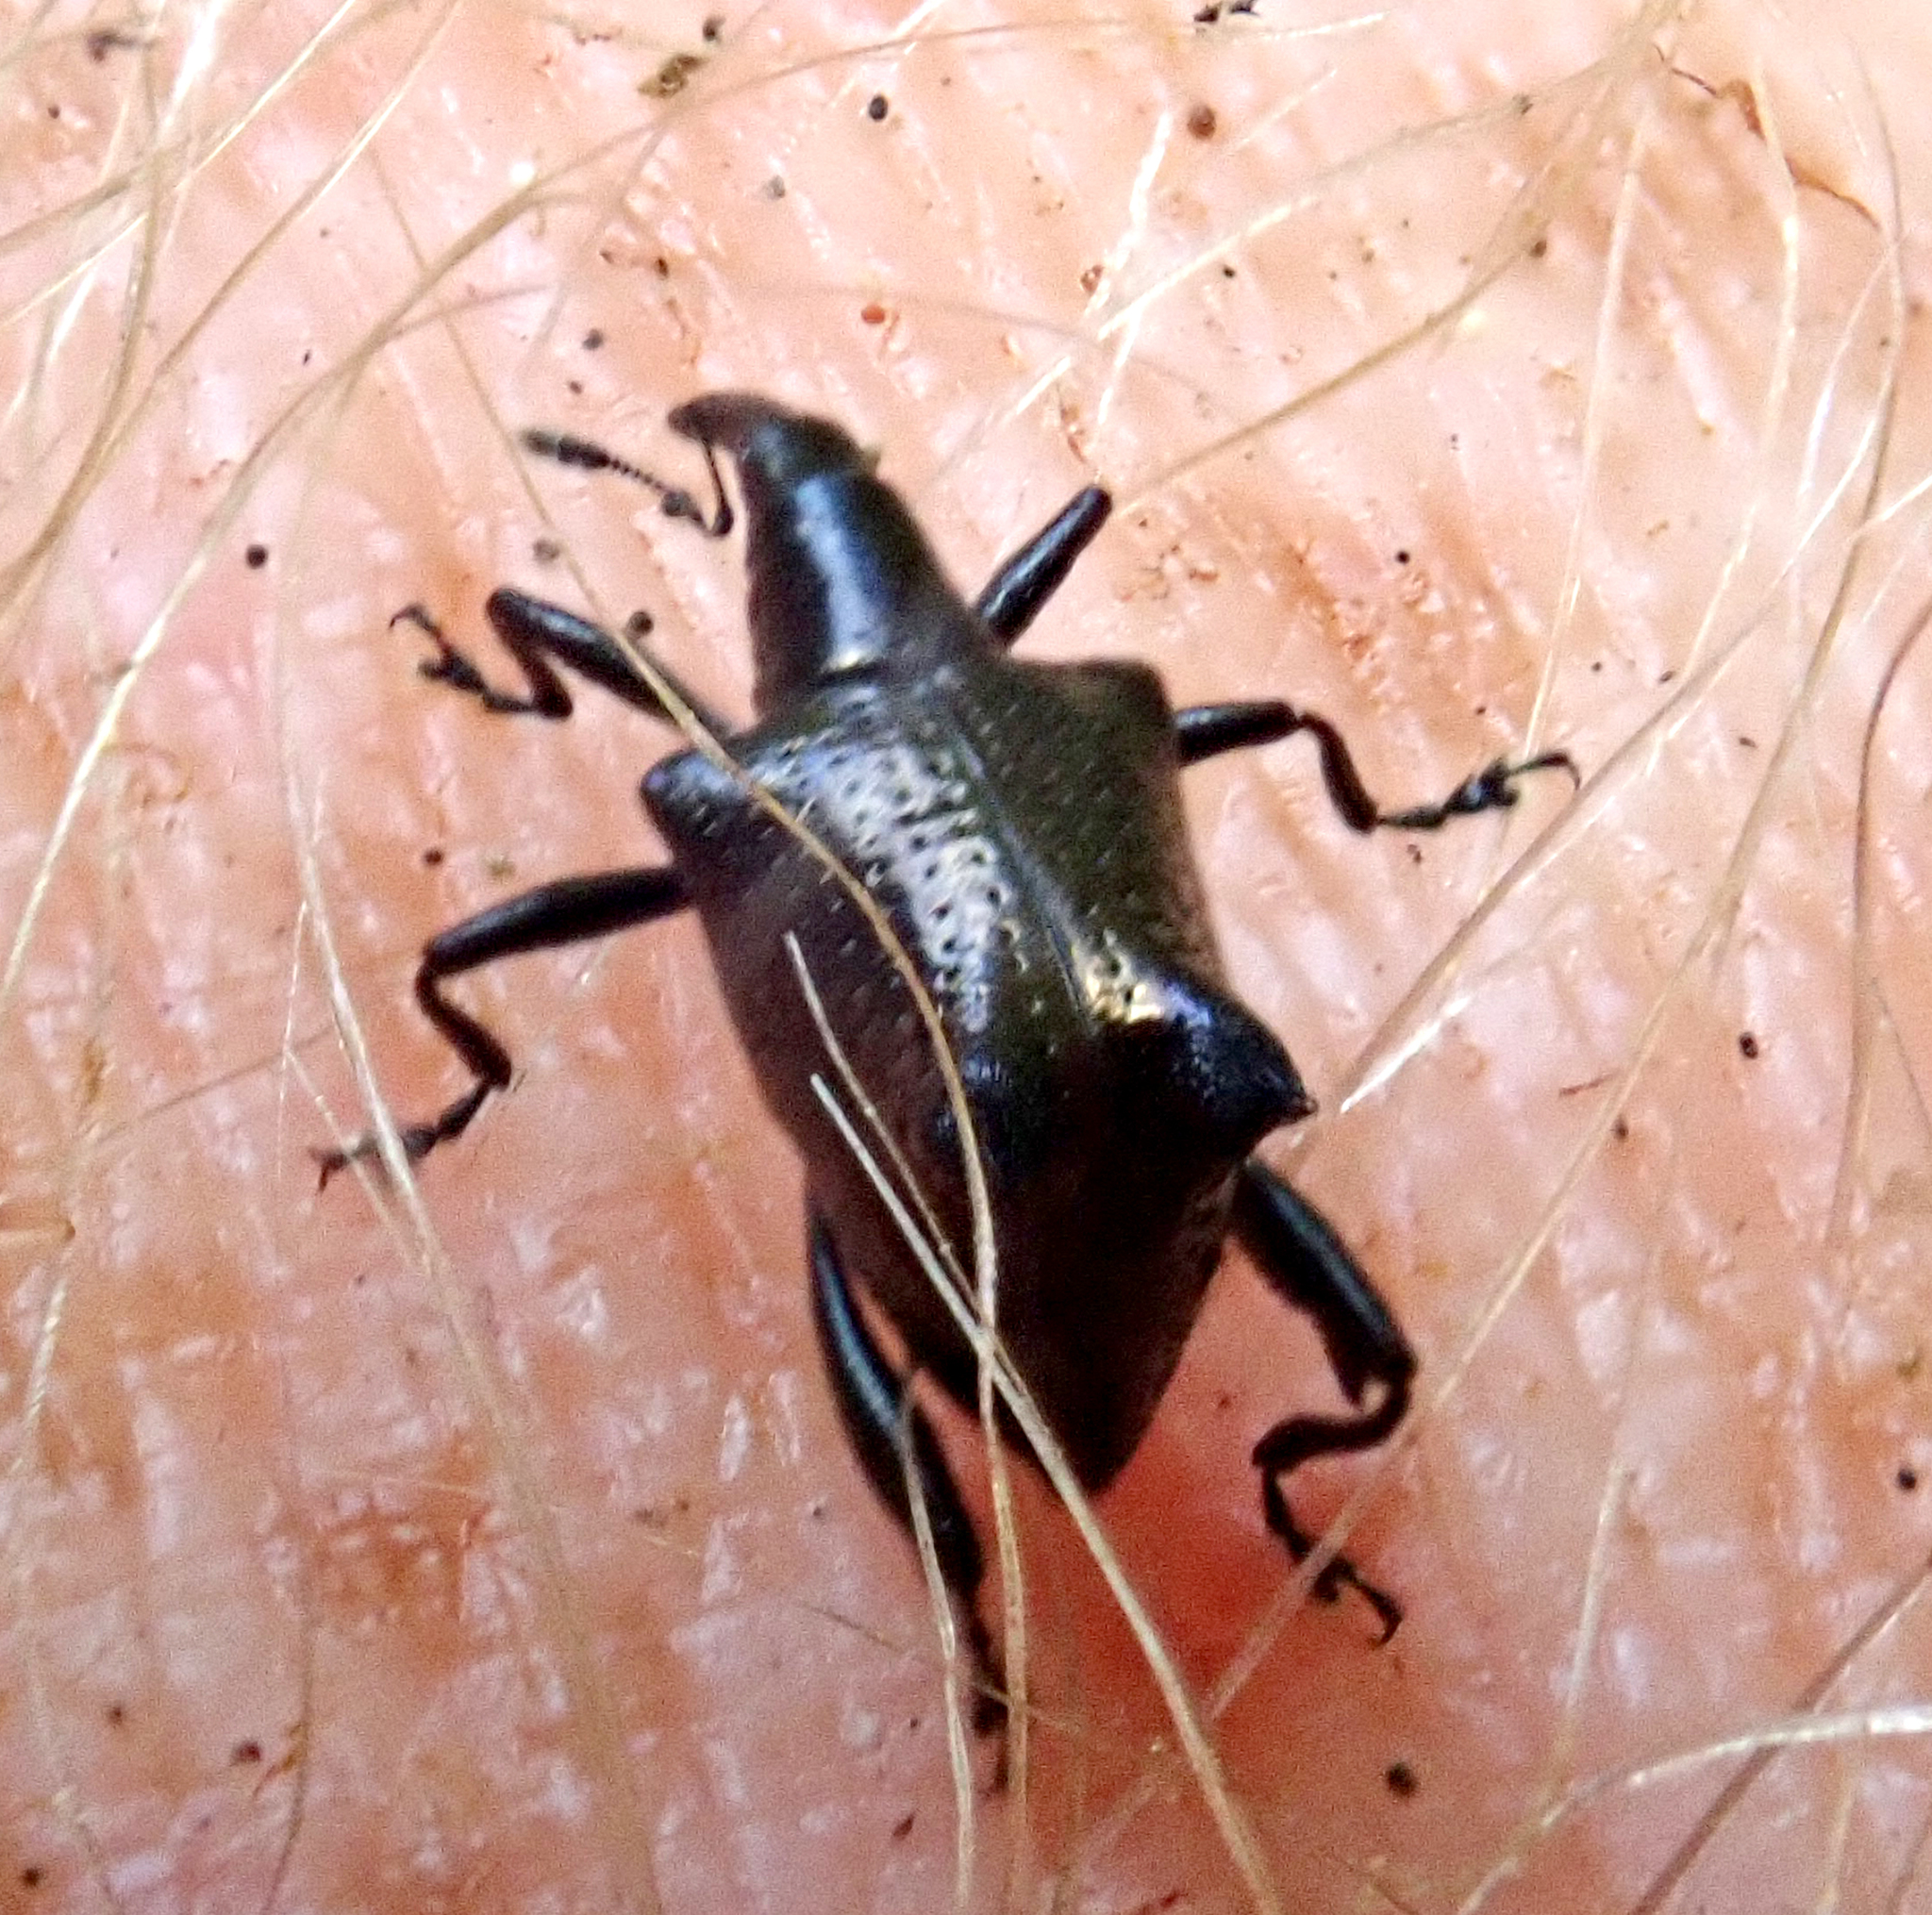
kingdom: Animalia
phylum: Arthropoda
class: Insecta
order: Coleoptera
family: Curculionidae
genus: Scolopterus
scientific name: Scolopterus penicillatus
